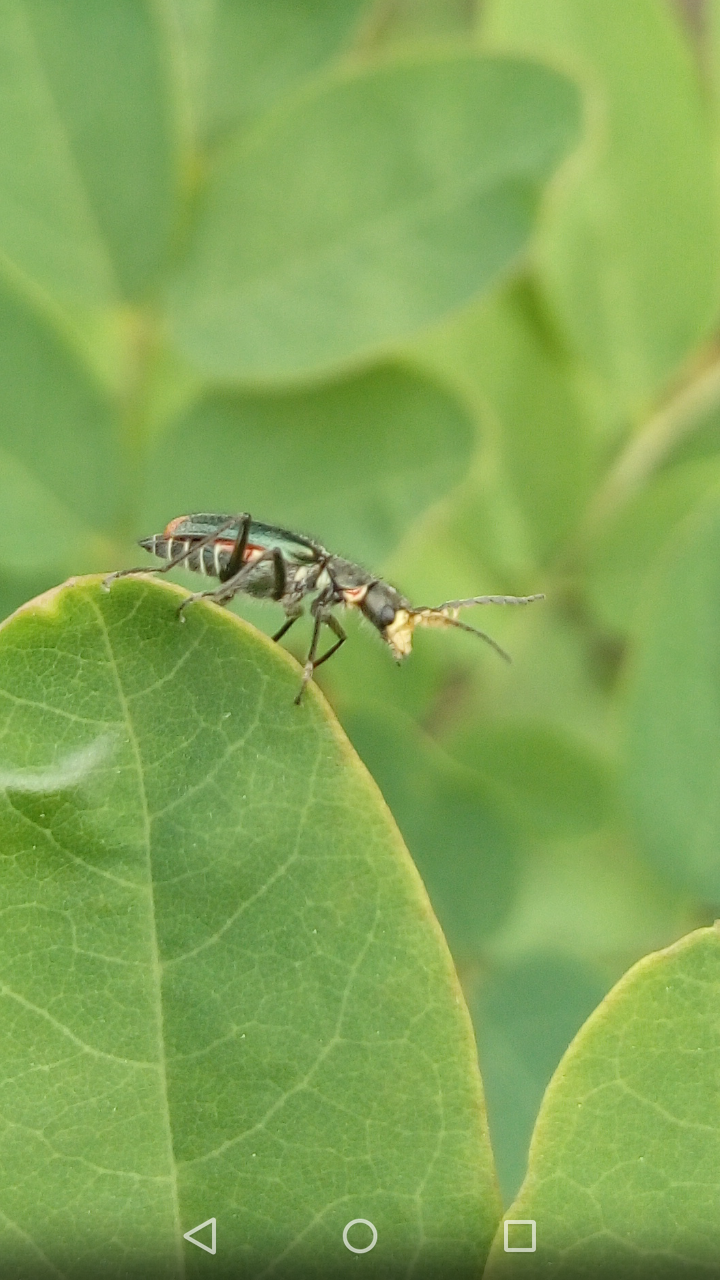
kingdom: Animalia
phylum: Arthropoda
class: Insecta
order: Coleoptera
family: Melyridae
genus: Malachius
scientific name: Malachius bipustulatus
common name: Malachite beetle
